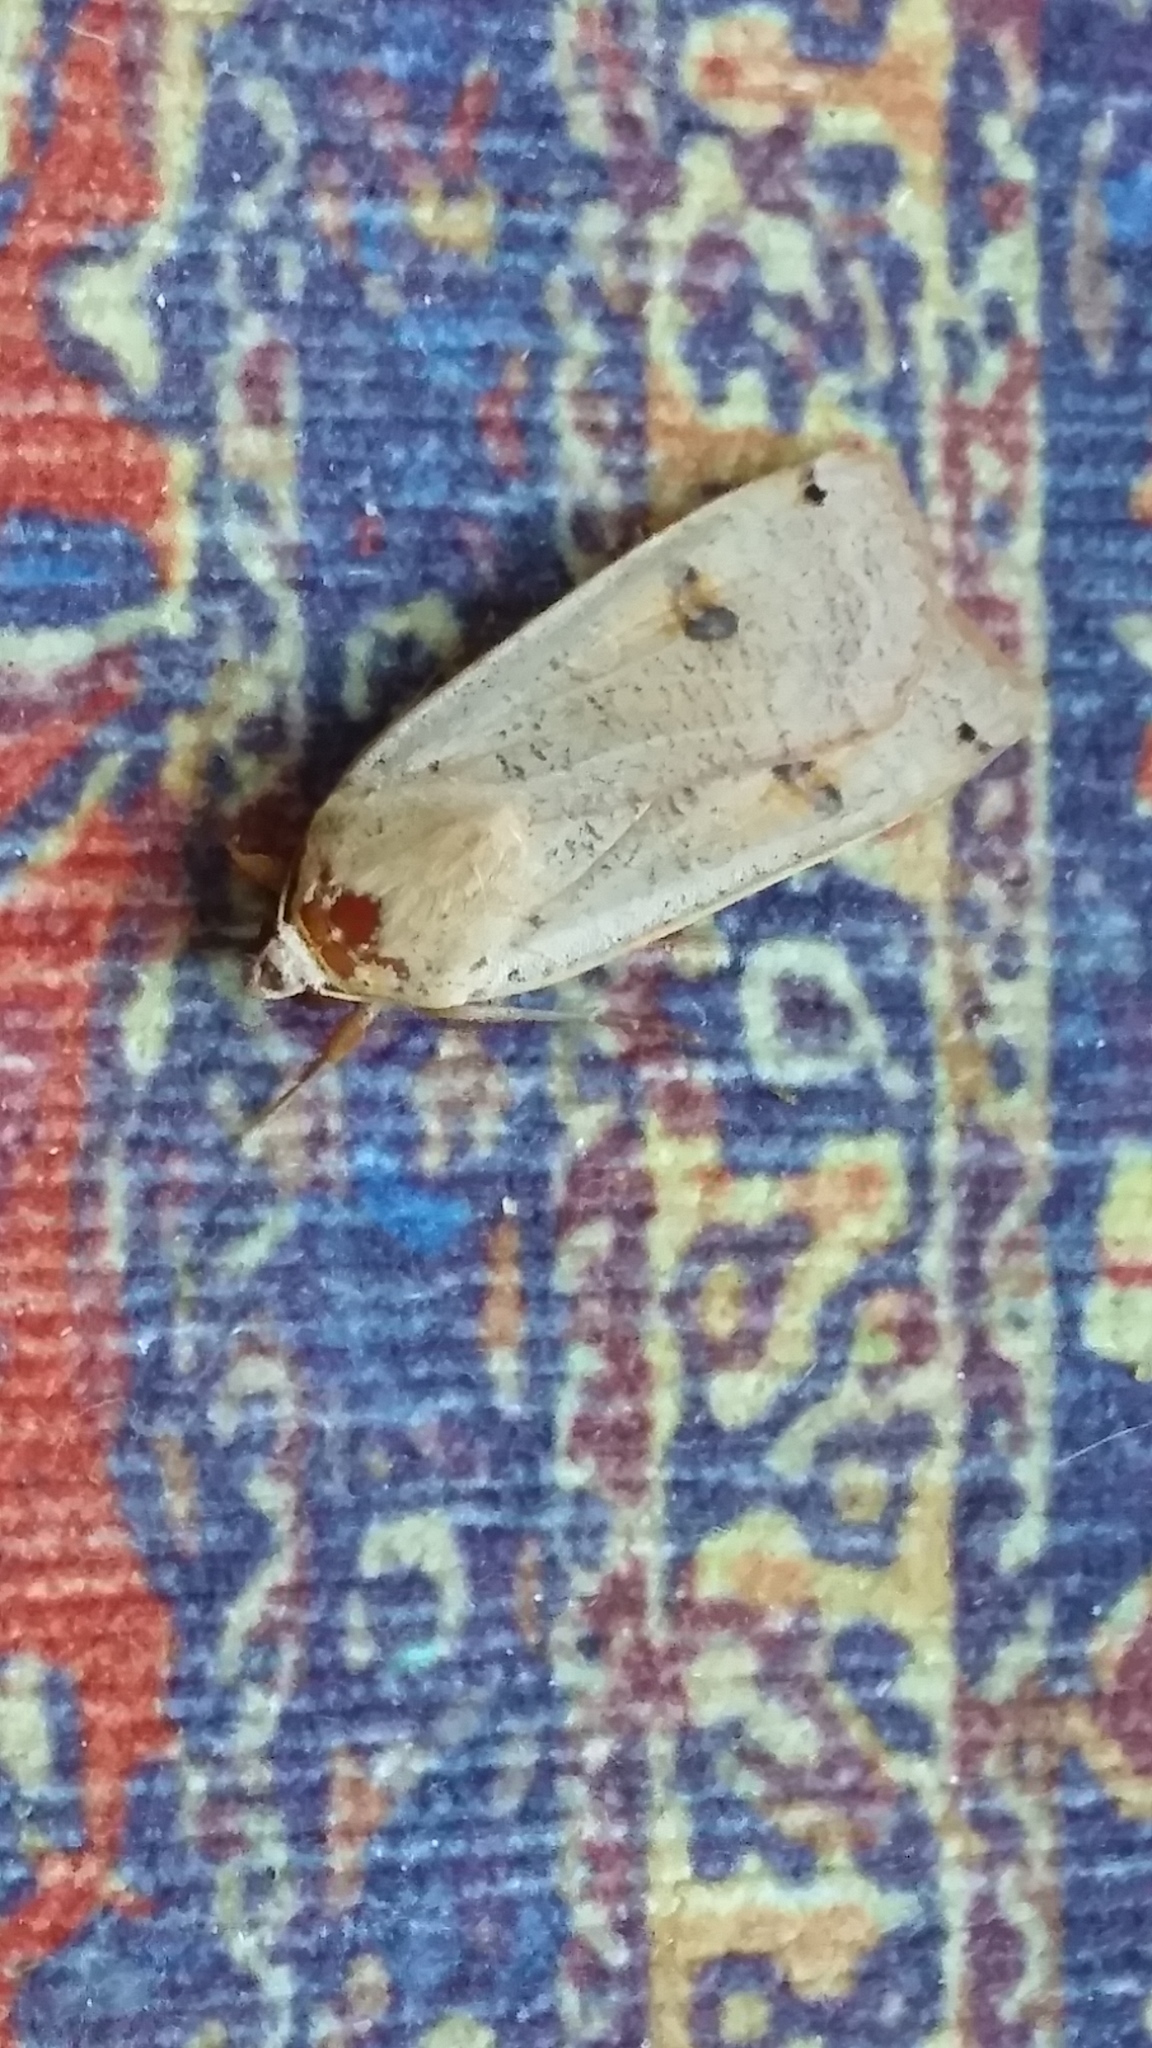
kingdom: Animalia
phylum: Arthropoda
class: Insecta
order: Lepidoptera
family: Noctuidae
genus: Noctua
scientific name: Noctua pronuba
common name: Large yellow underwing
